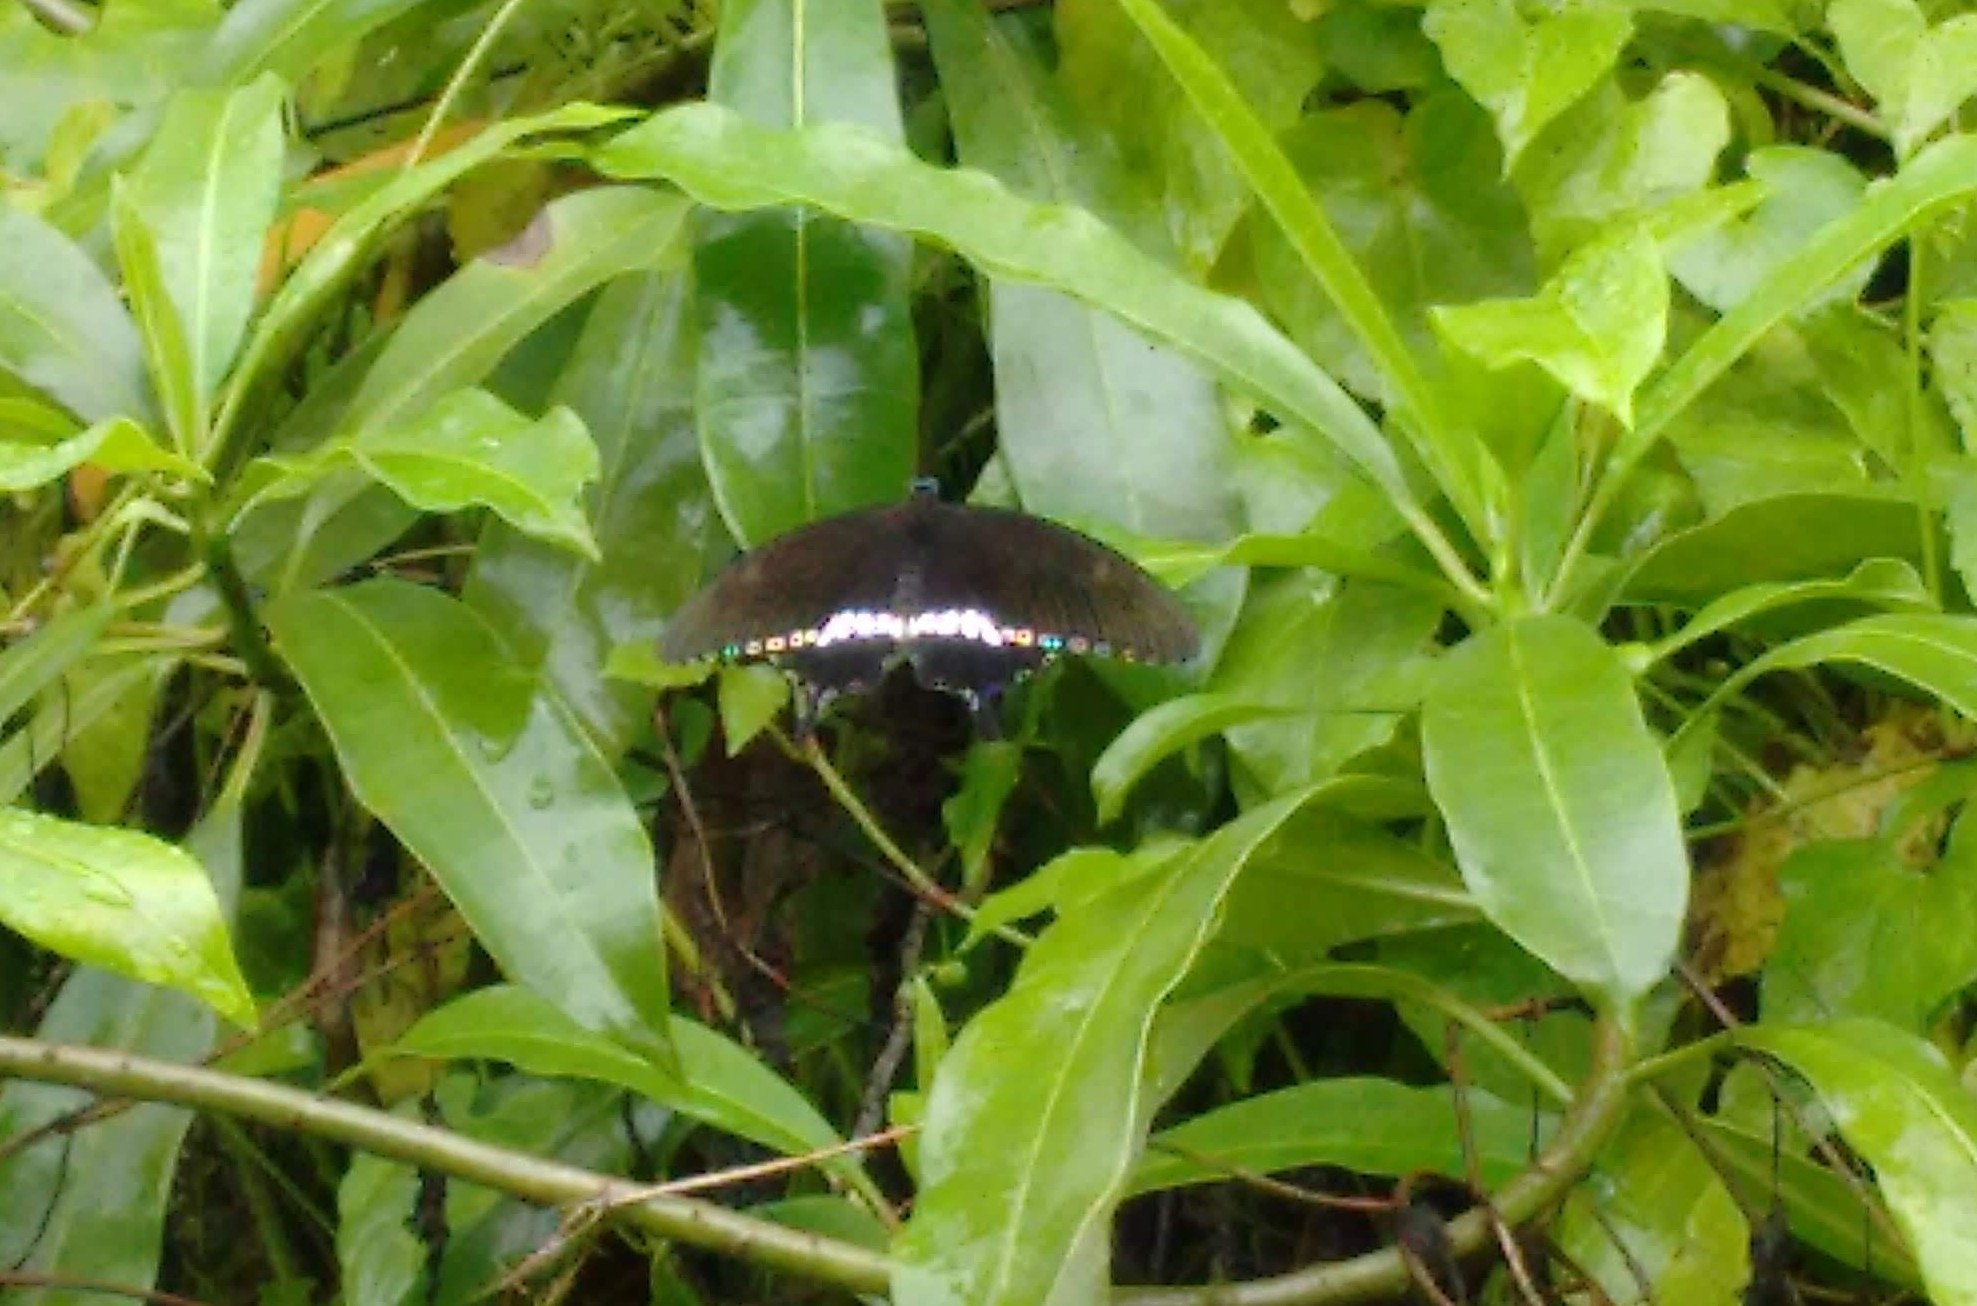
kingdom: Animalia
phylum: Arthropoda
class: Insecta
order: Lepidoptera
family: Papilionidae
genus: Papilio
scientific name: Papilio polytes
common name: Common mormon
